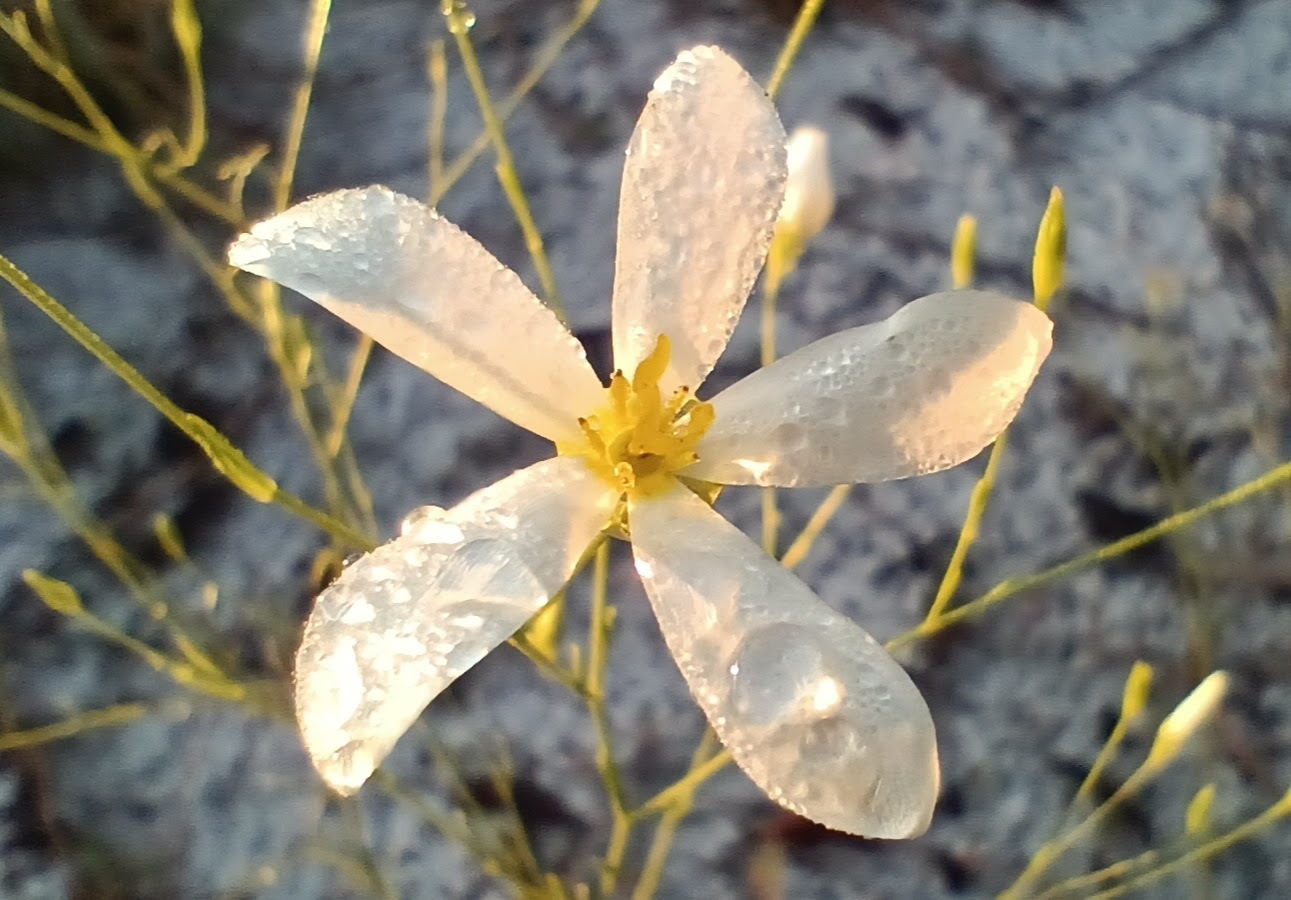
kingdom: Plantae
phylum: Tracheophyta
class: Magnoliopsida
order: Gentianales
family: Gentianaceae
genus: Sabatia
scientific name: Sabatia brevifolia
